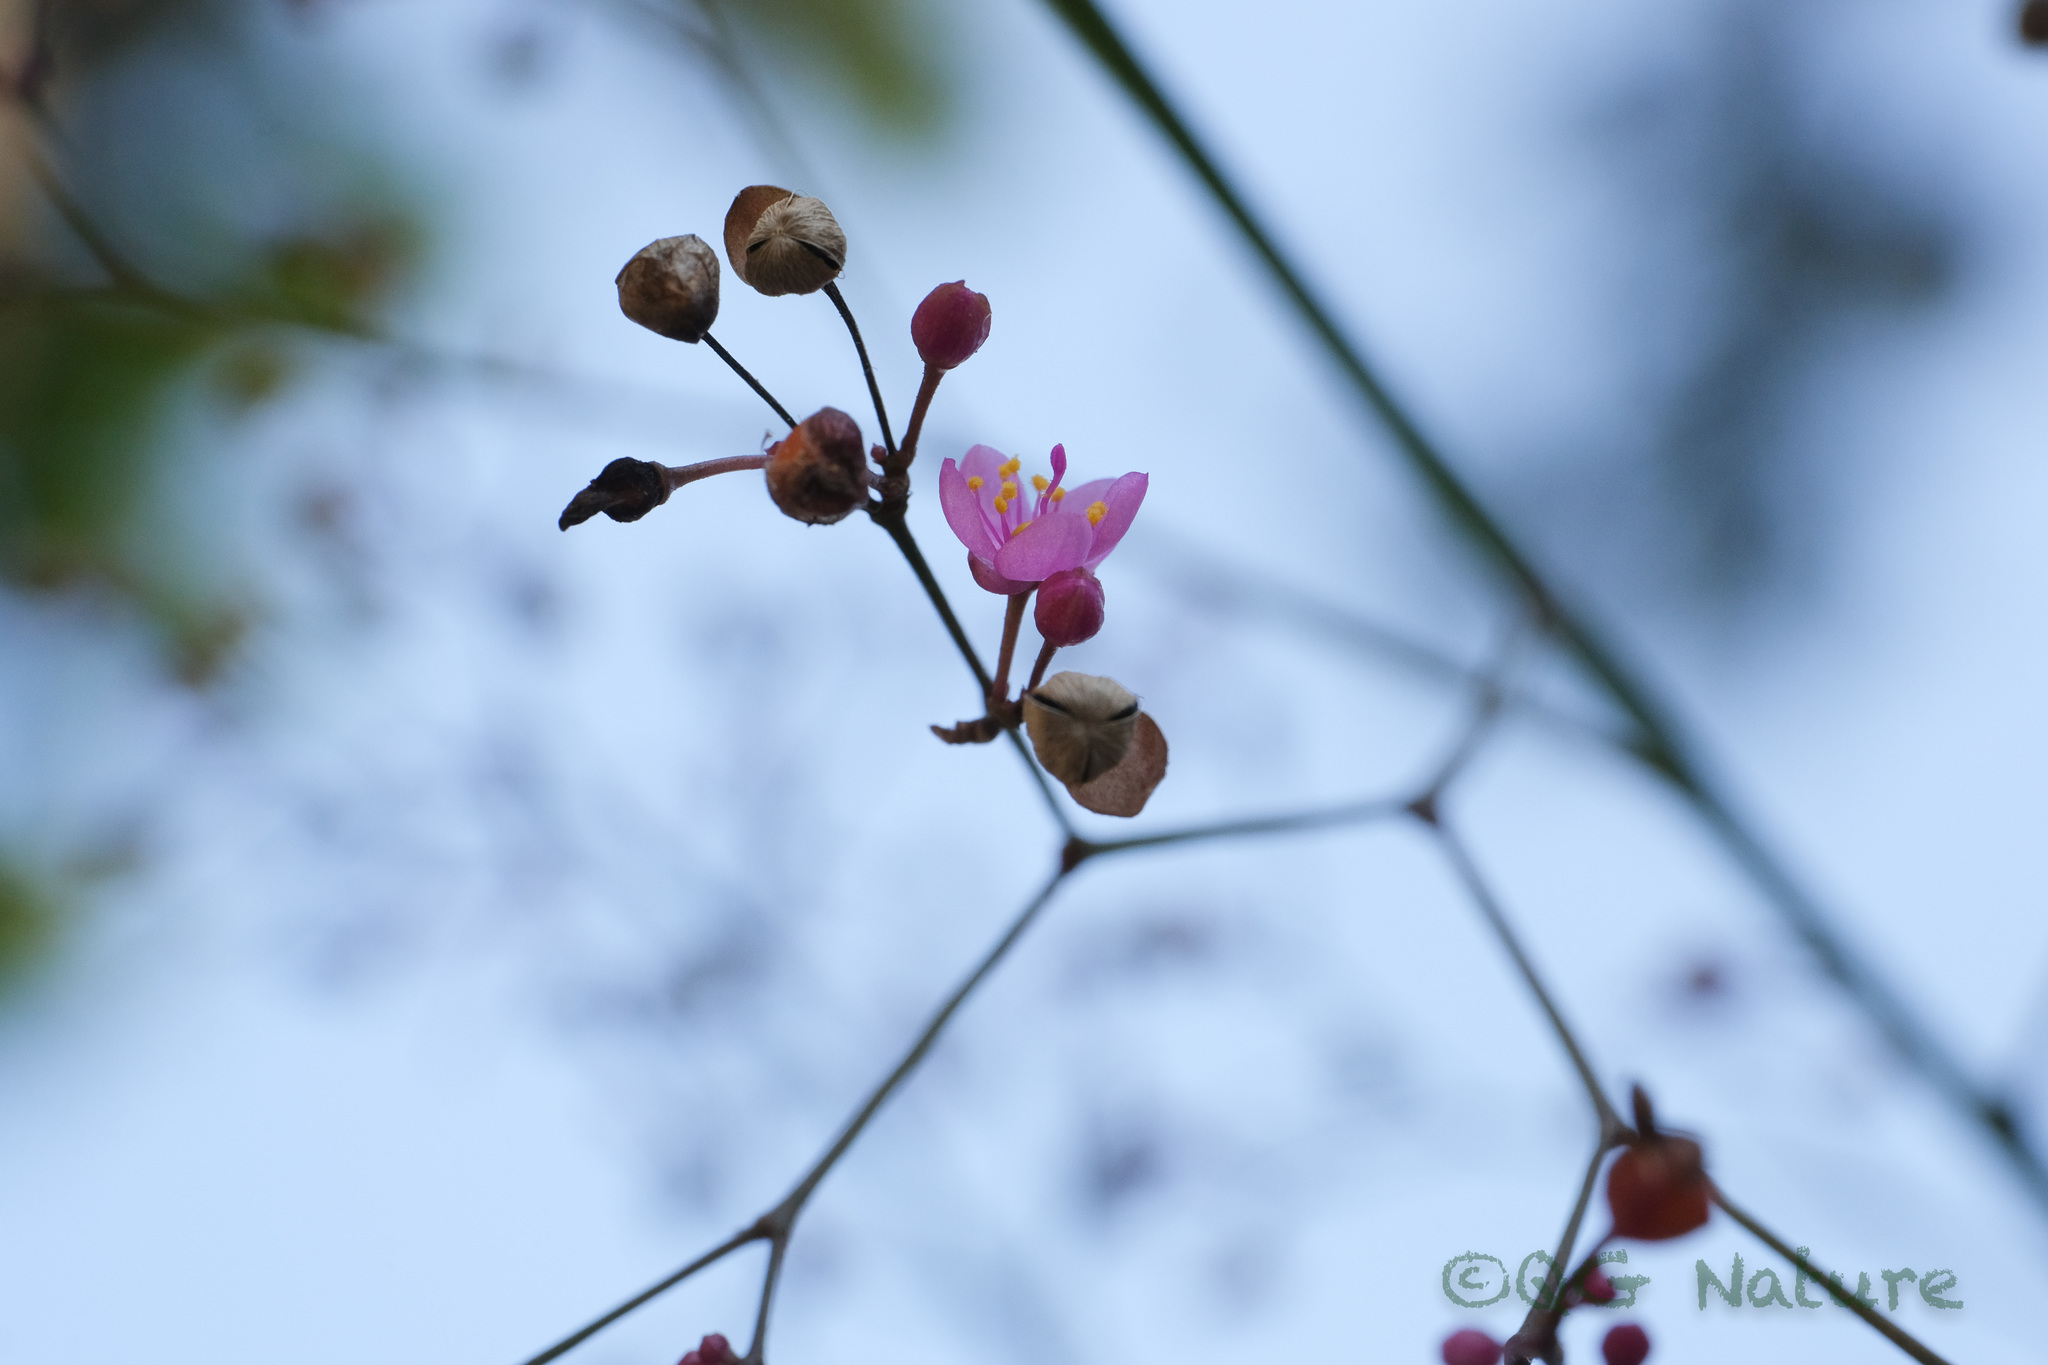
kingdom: Plantae
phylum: Tracheophyta
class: Magnoliopsida
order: Caryophyllales
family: Talinaceae
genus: Talinum
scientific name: Talinum paniculatum
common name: Jewels of opar
